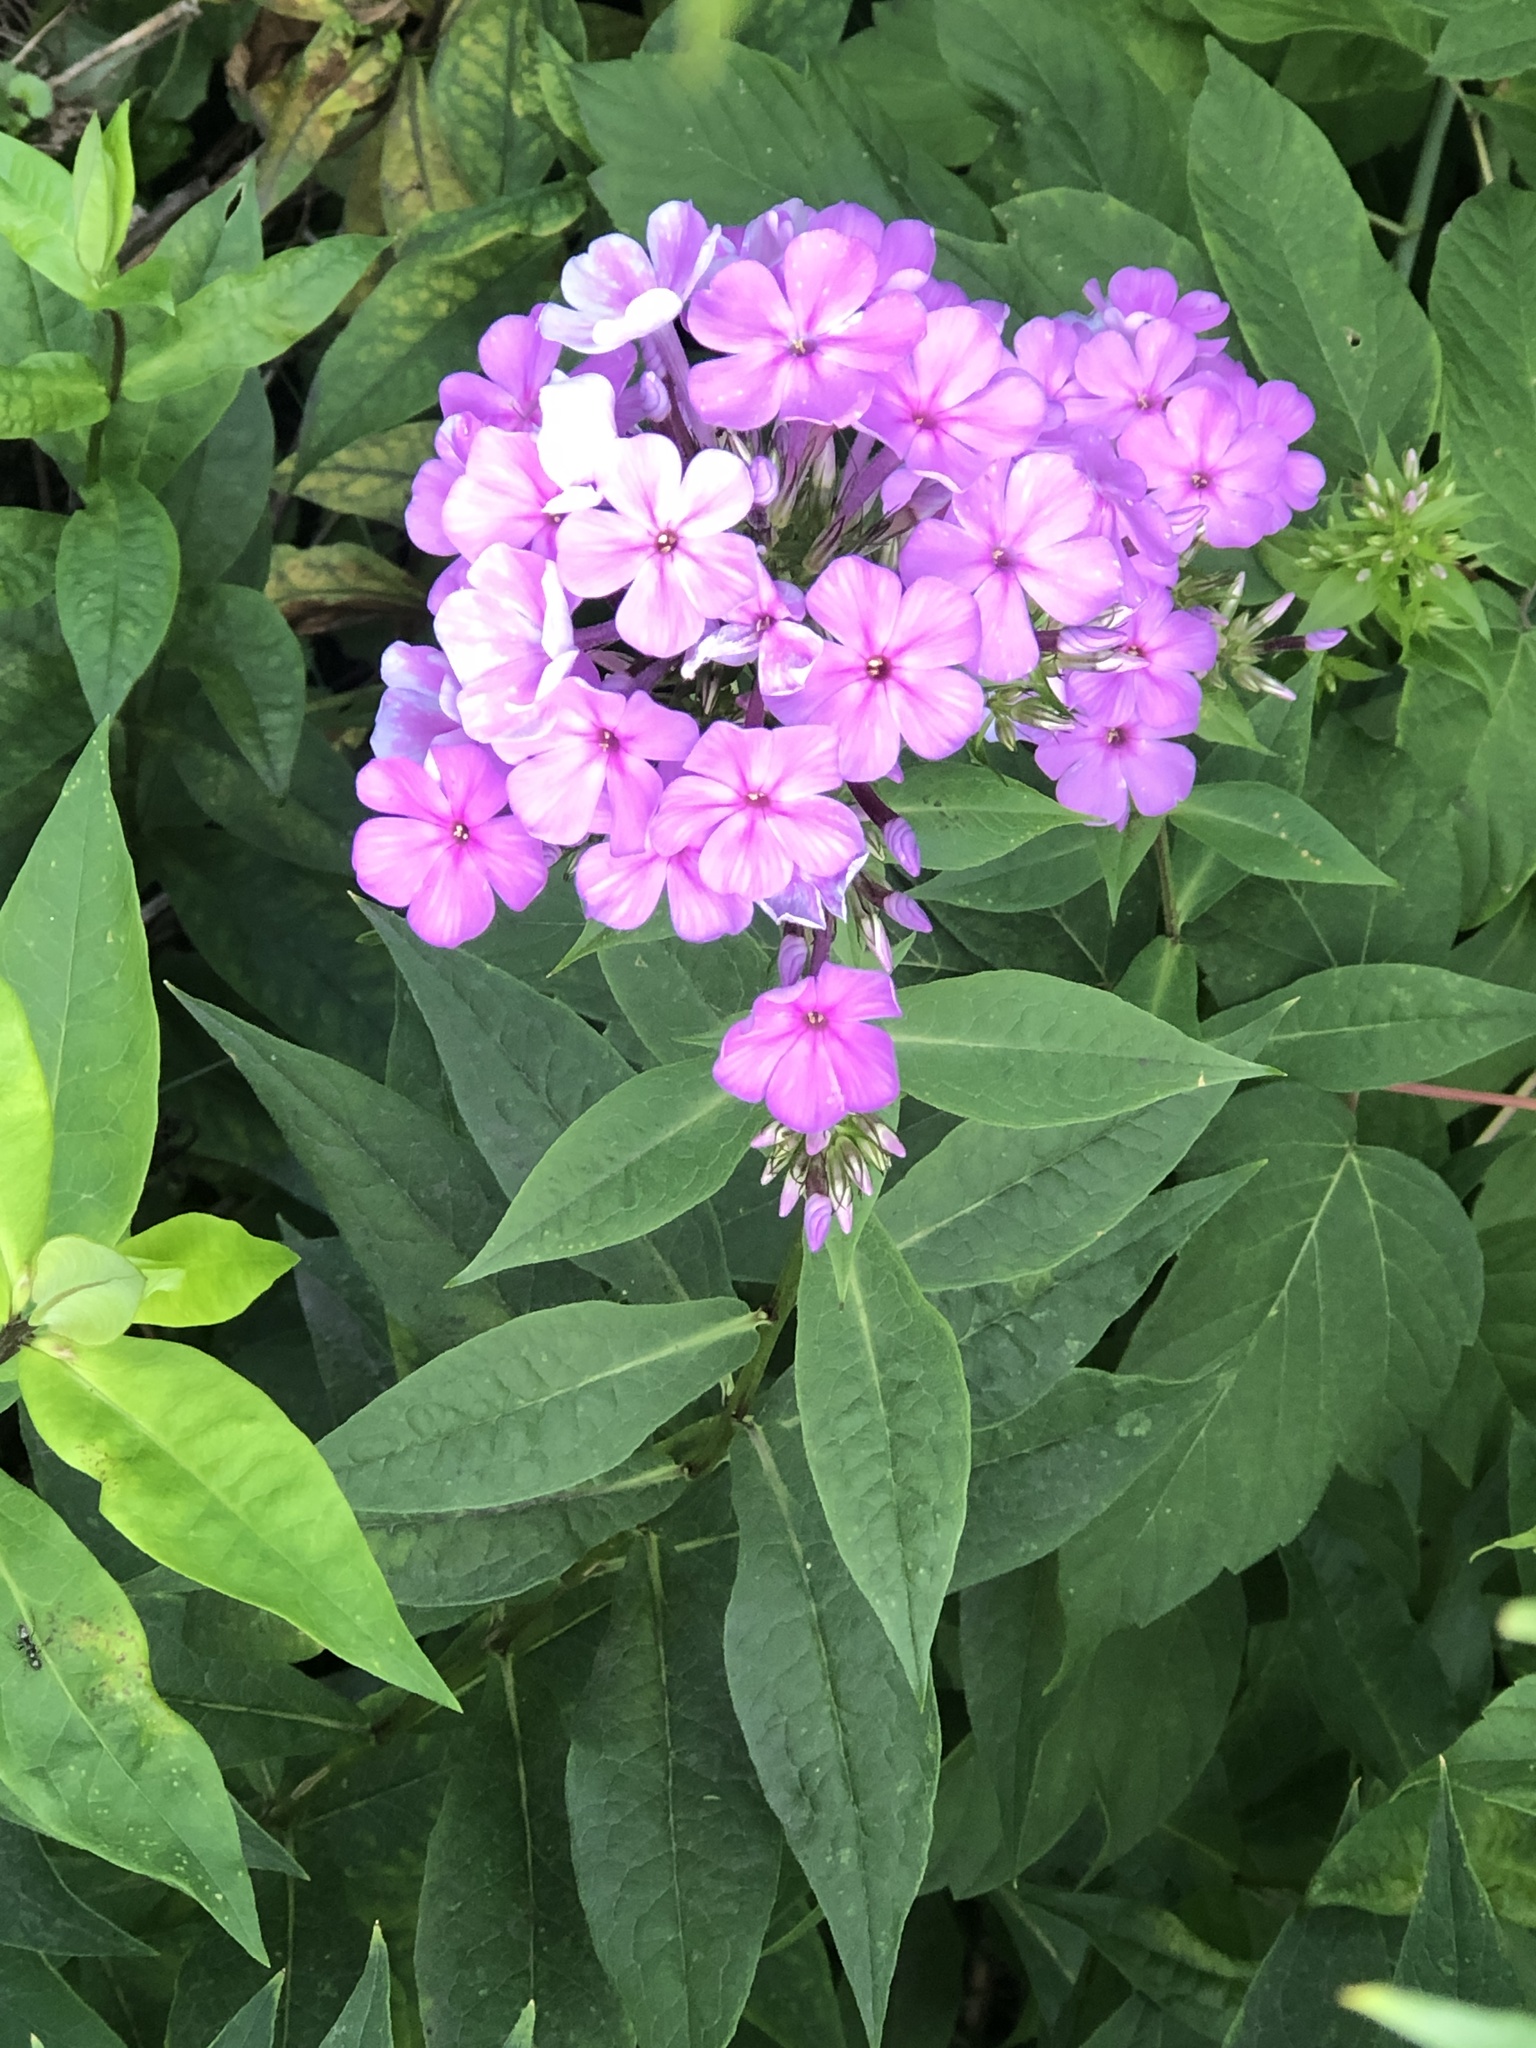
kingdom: Plantae
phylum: Tracheophyta
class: Magnoliopsida
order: Ericales
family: Polemoniaceae
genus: Phlox
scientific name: Phlox paniculata
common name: Fall phlox
